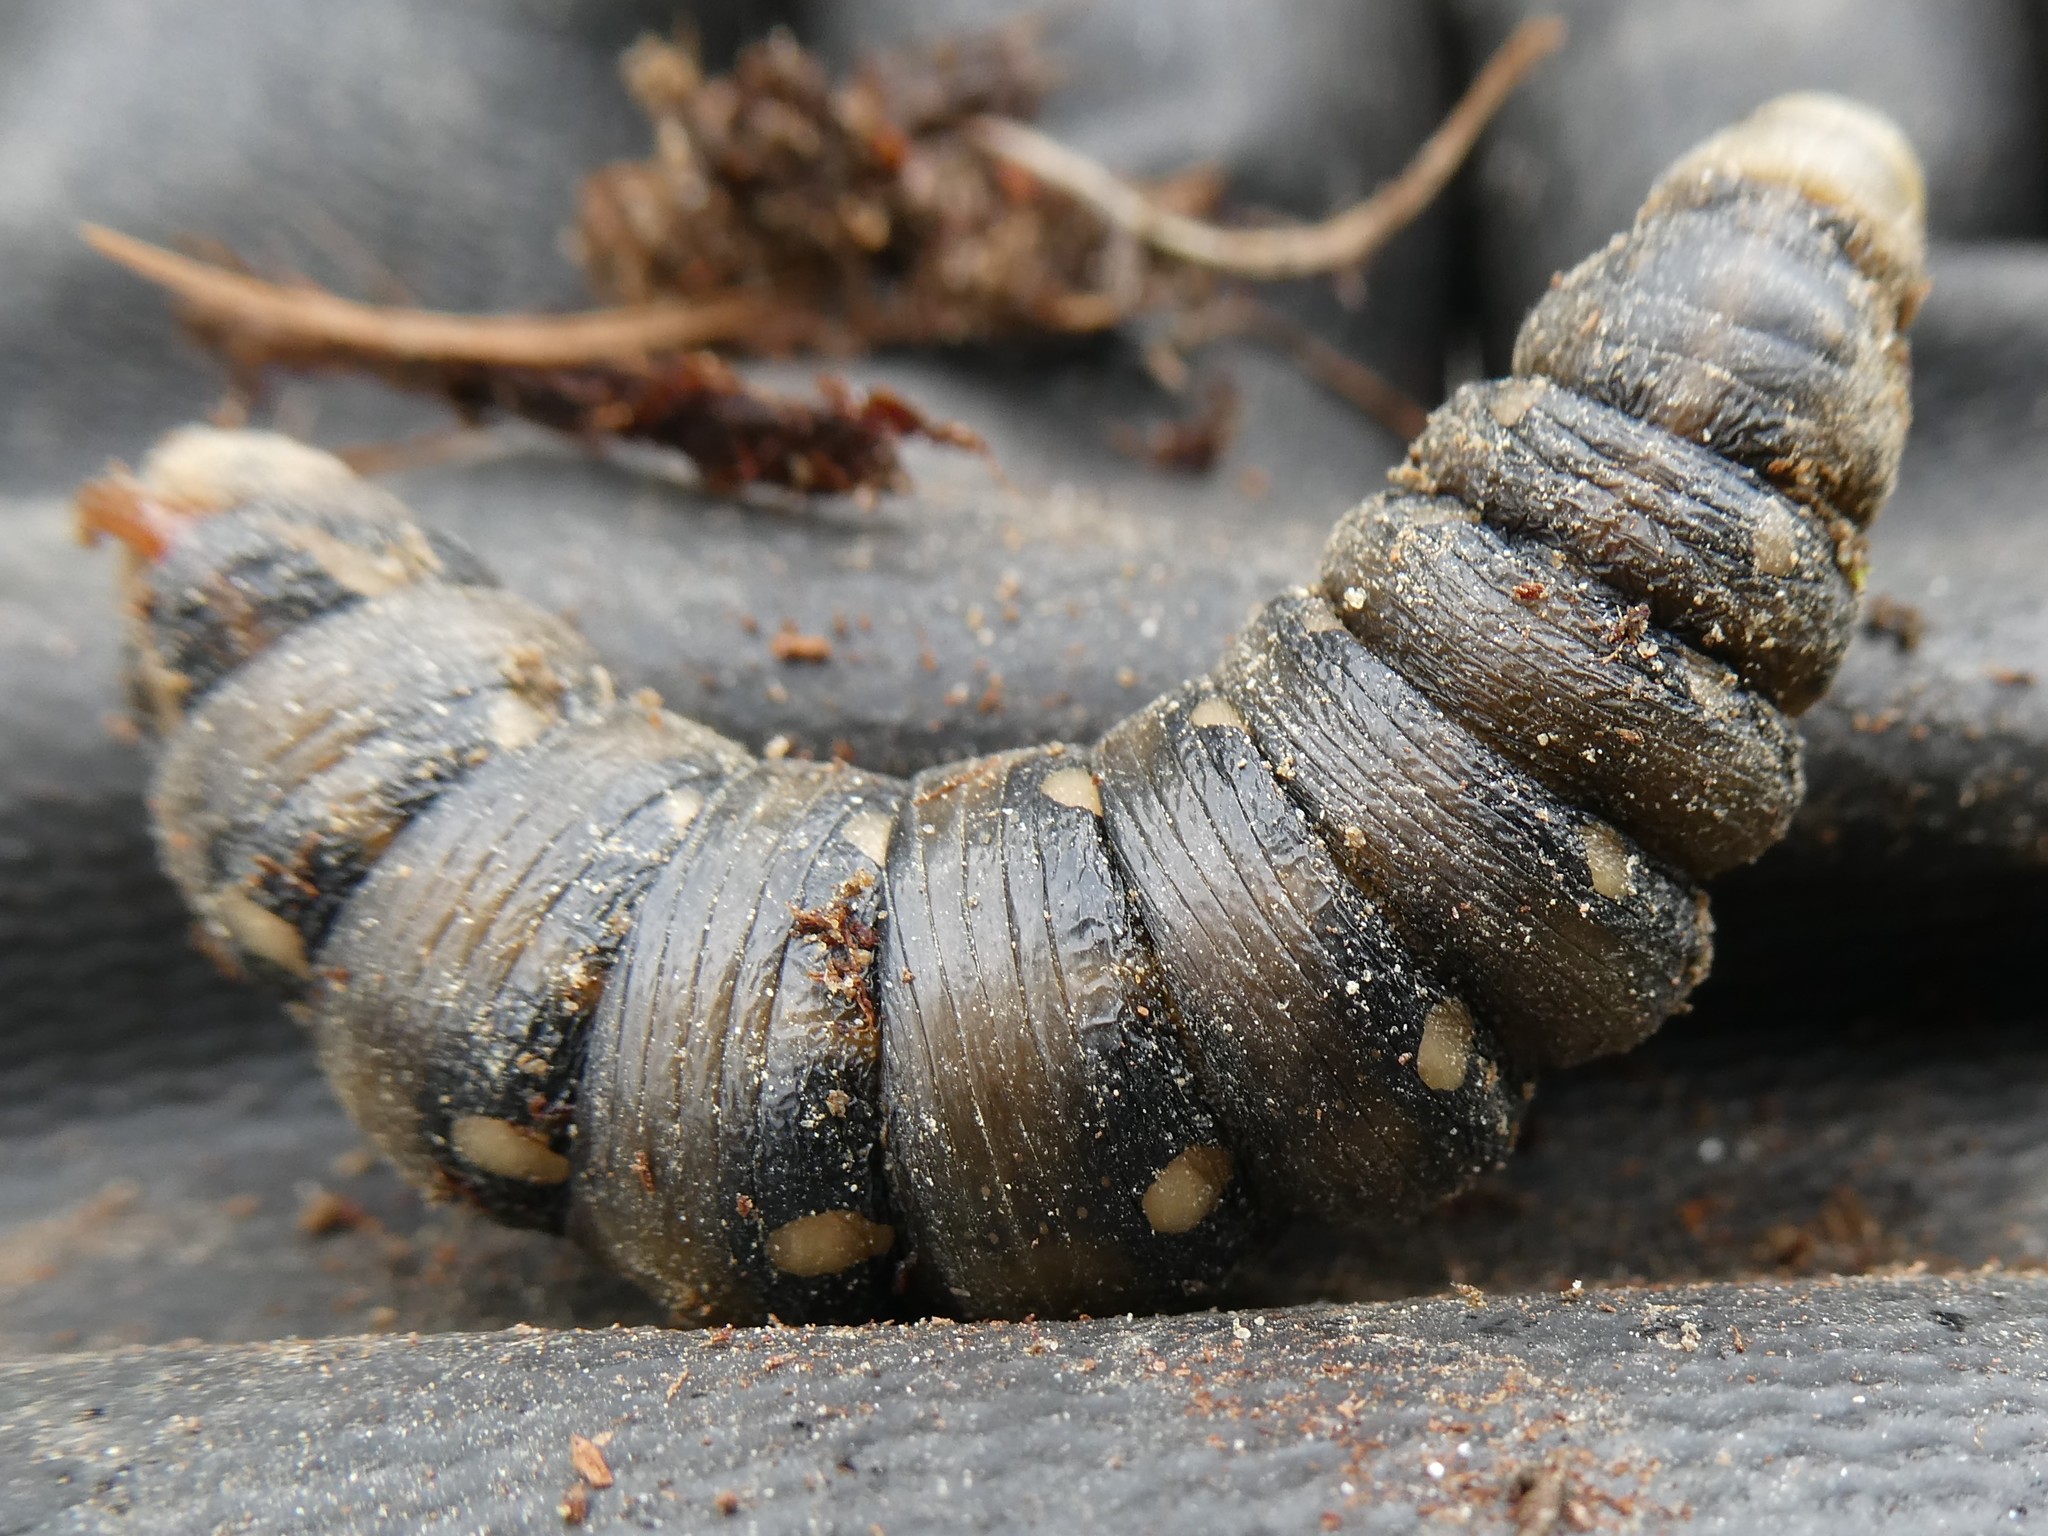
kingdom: Animalia
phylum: Arthropoda
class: Insecta
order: Lepidoptera
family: Sphingidae
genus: Hyles
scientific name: Hyles gallii
